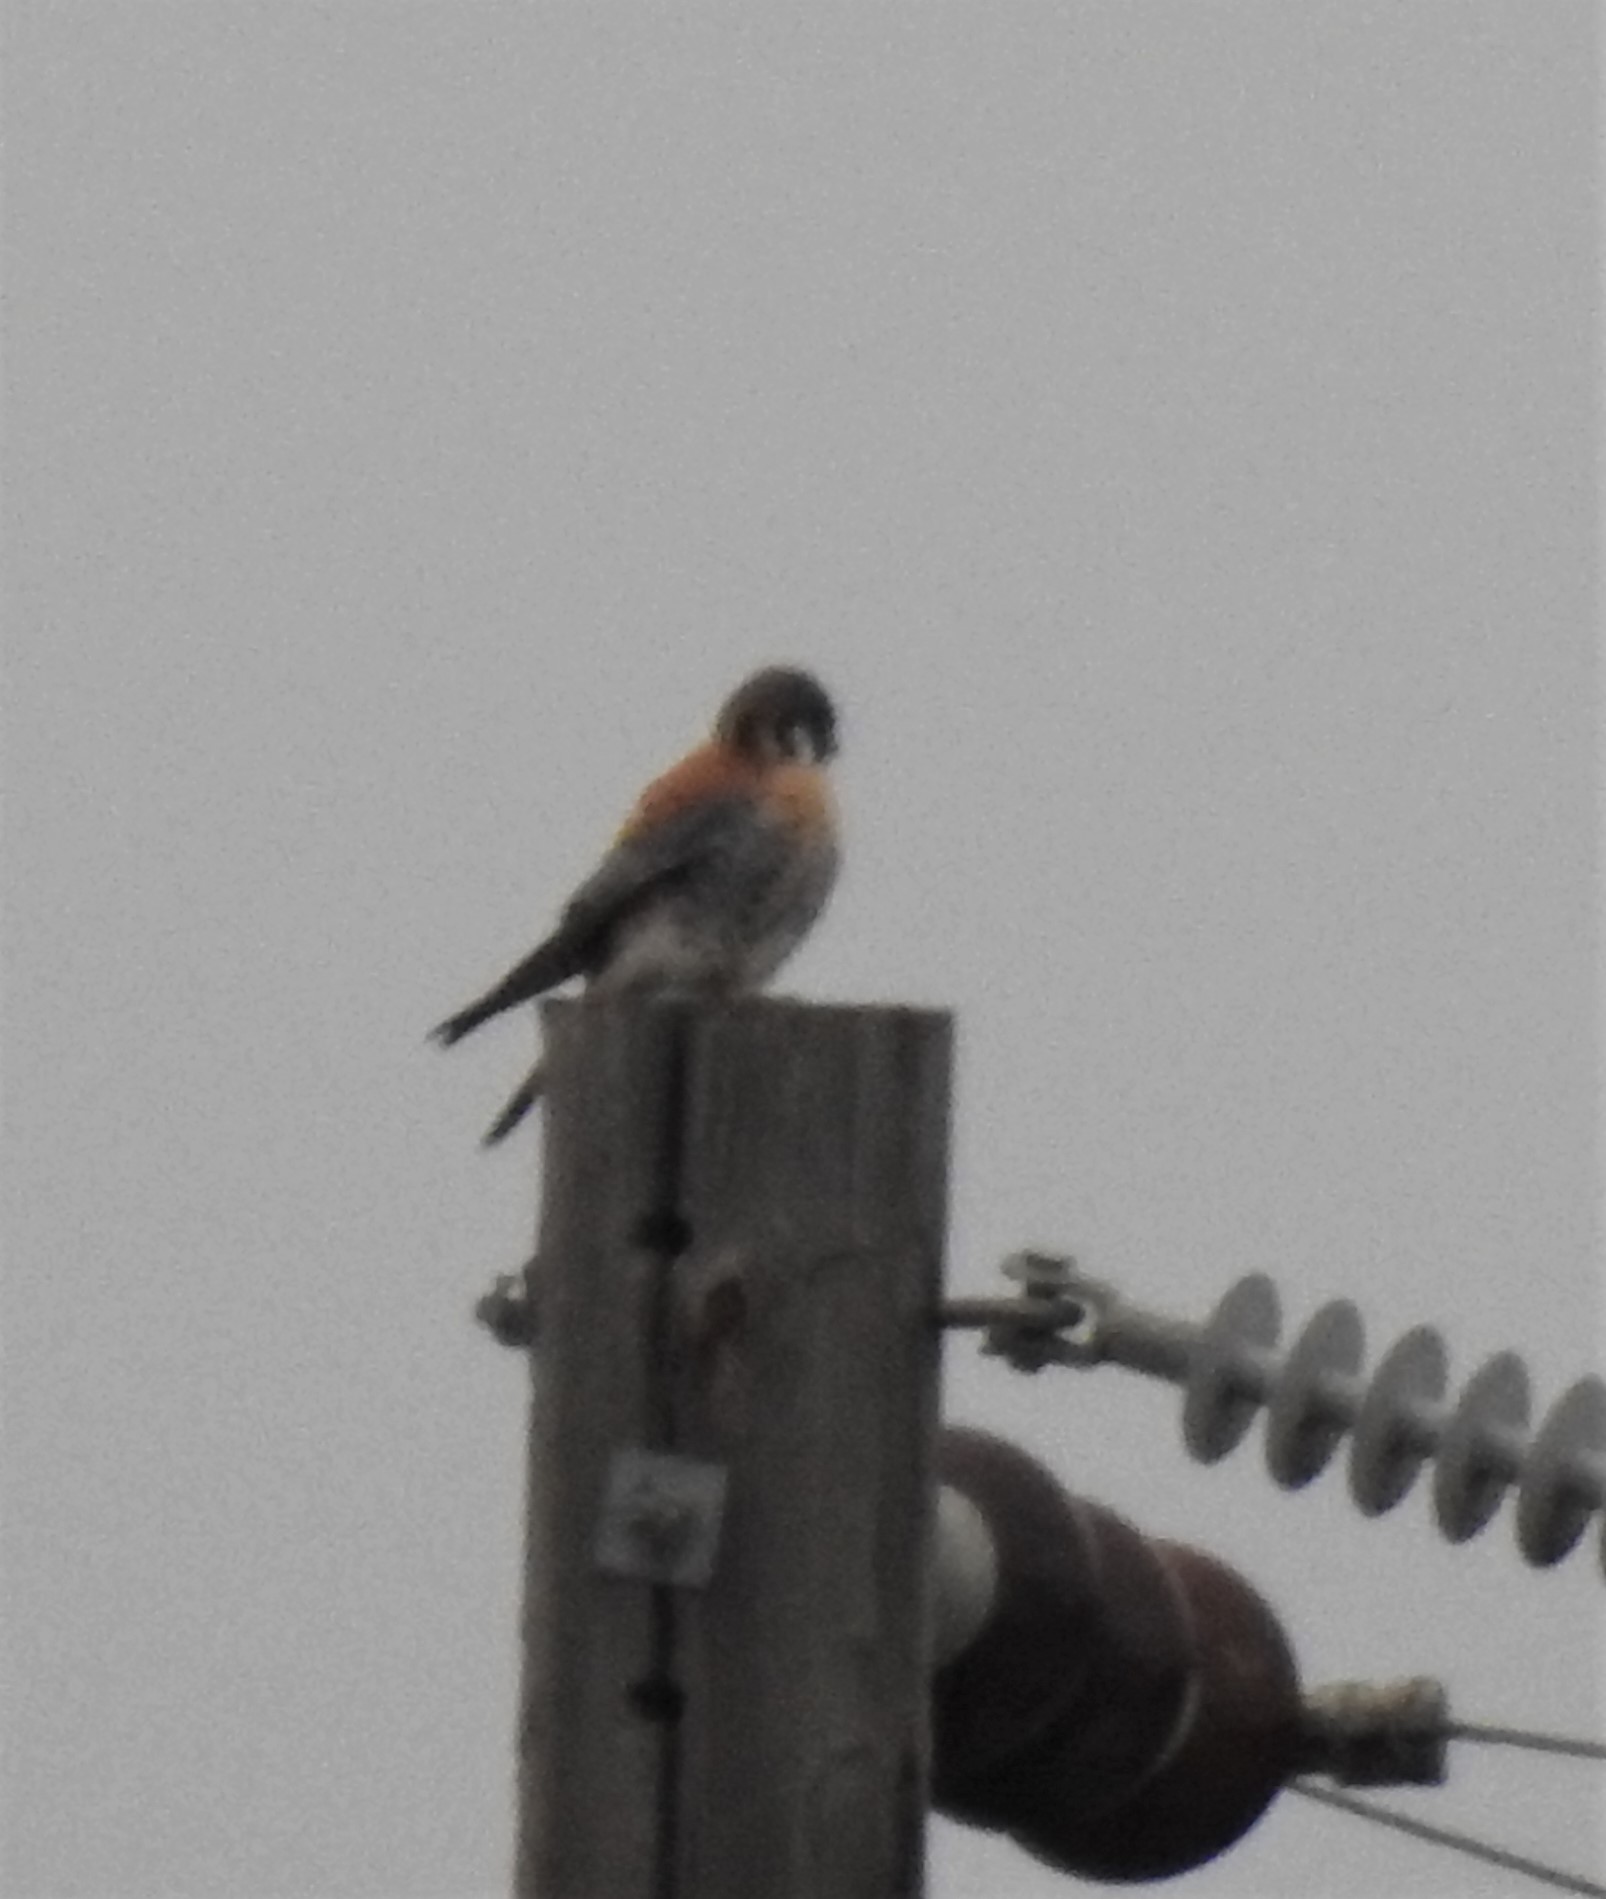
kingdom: Animalia
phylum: Chordata
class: Aves
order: Falconiformes
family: Falconidae
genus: Falco
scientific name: Falco sparverius
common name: American kestrel
